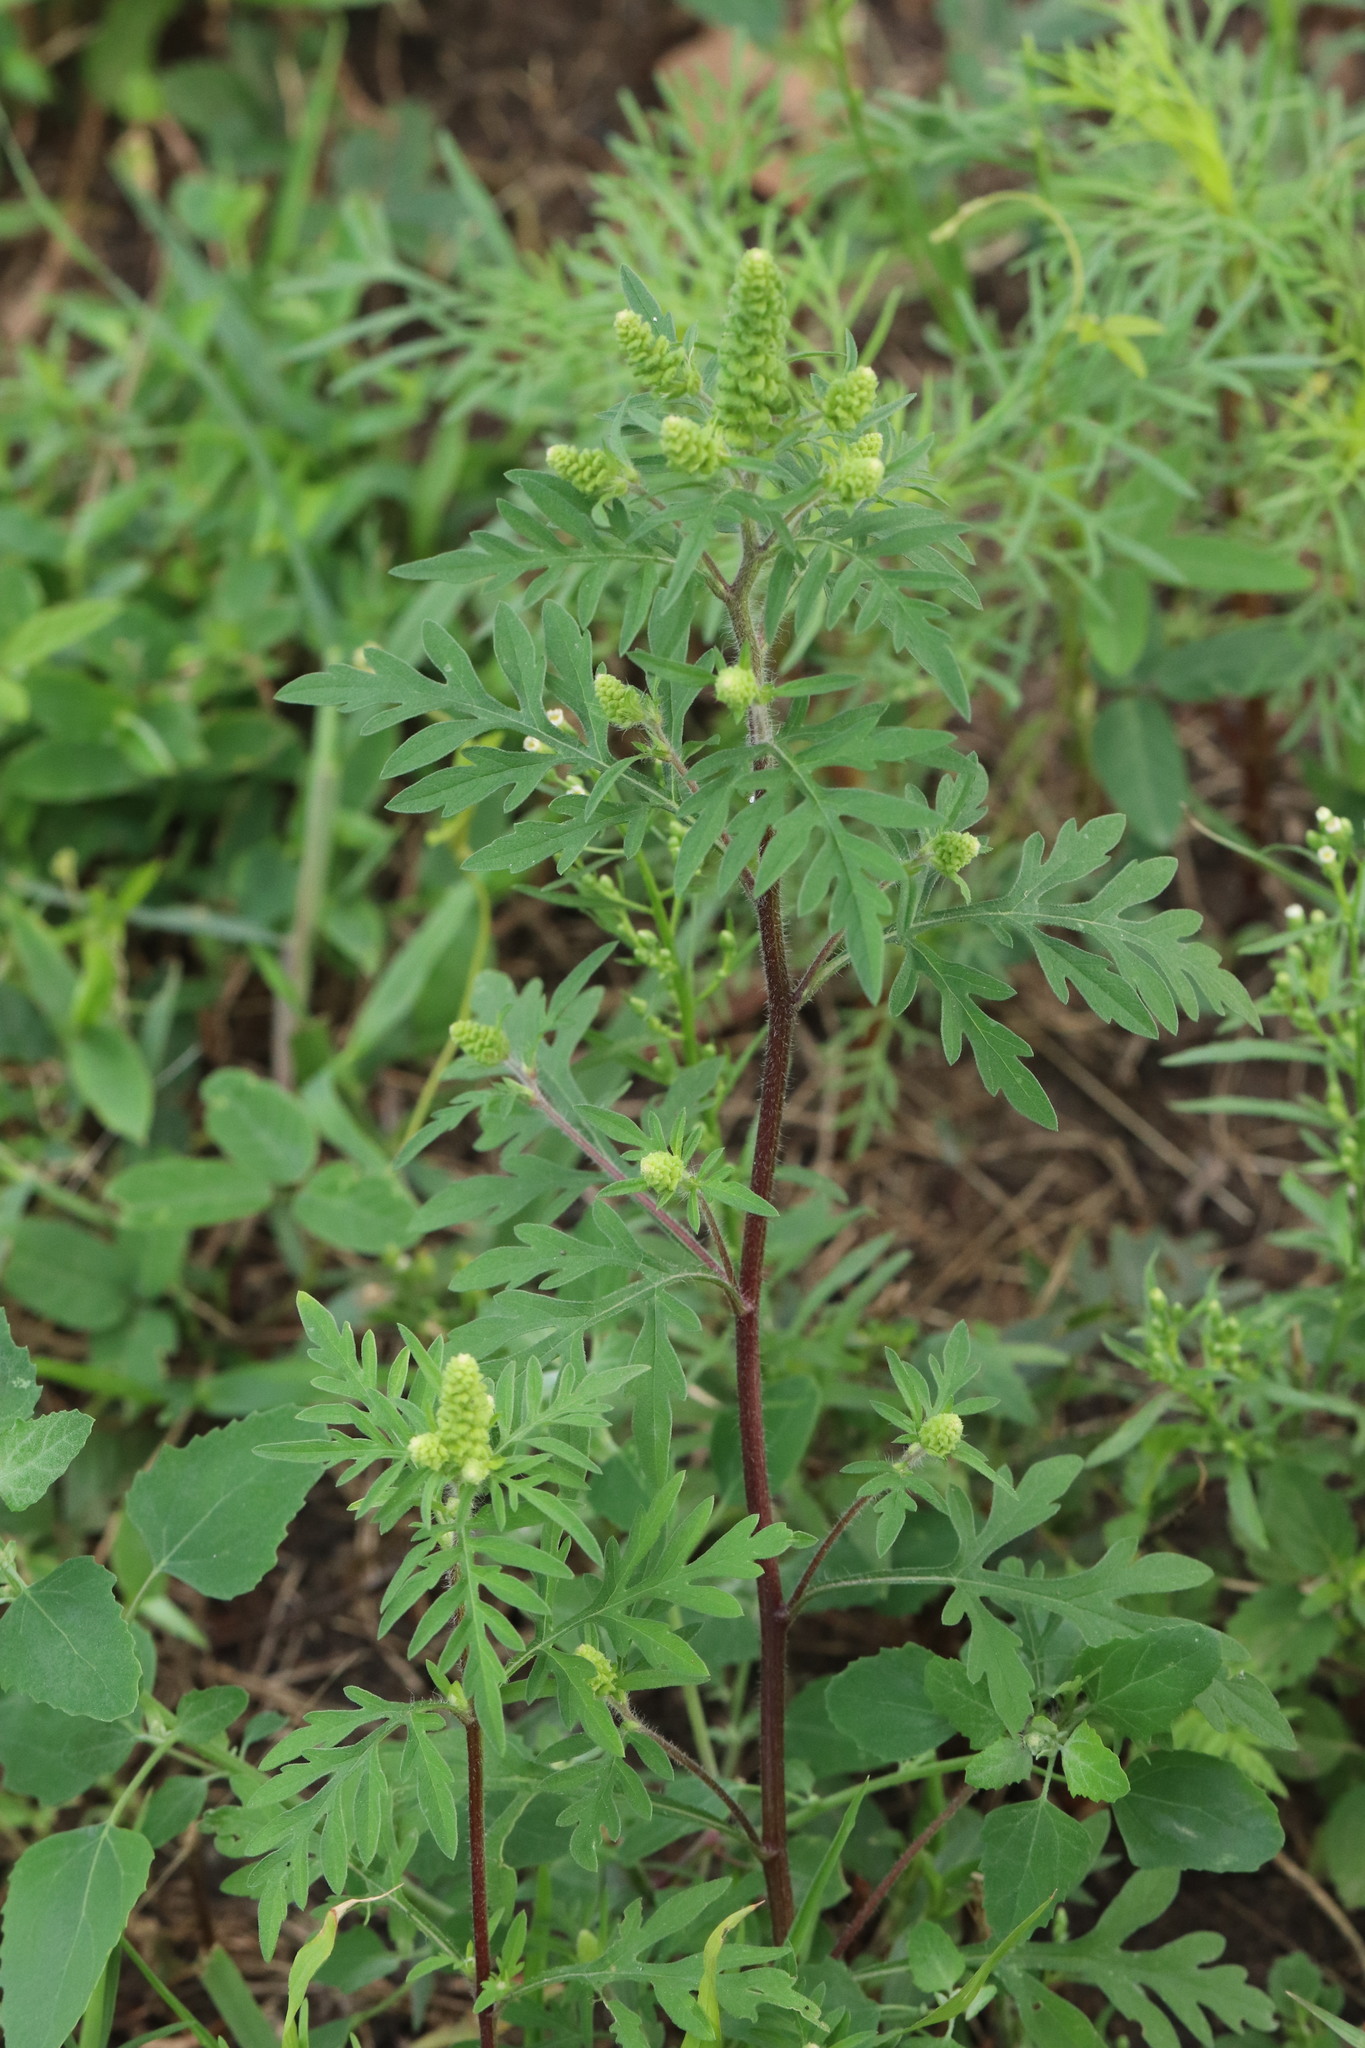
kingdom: Plantae
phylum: Tracheophyta
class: Magnoliopsida
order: Asterales
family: Asteraceae
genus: Ambrosia
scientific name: Ambrosia artemisiifolia
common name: Annual ragweed
